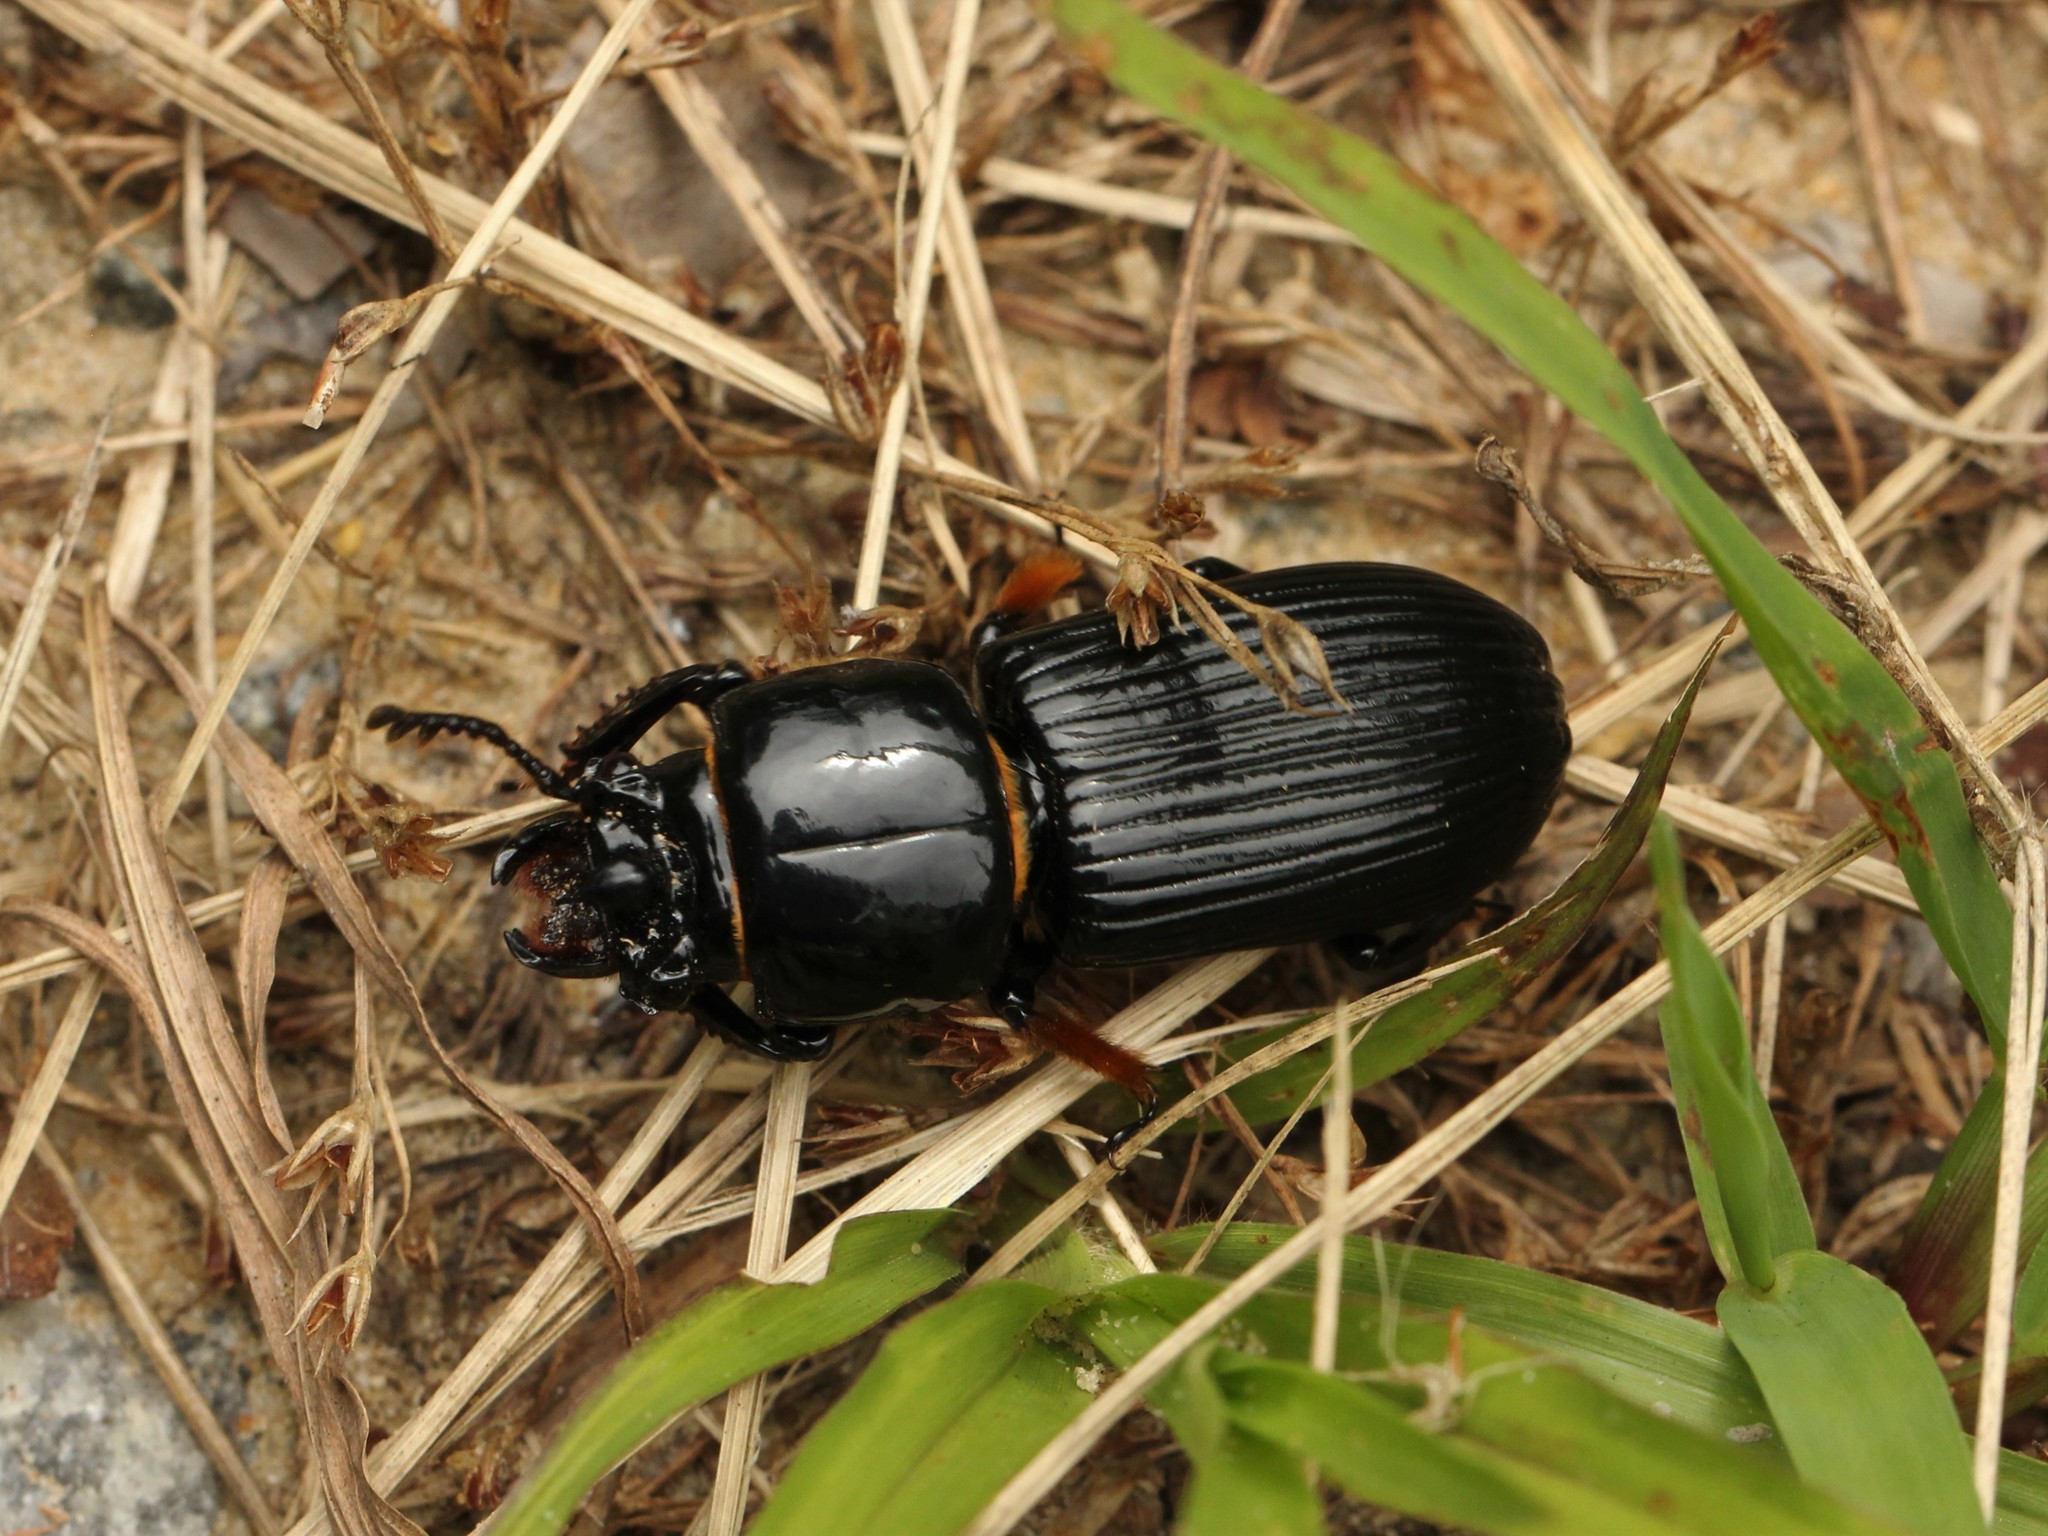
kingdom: Animalia
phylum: Arthropoda
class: Insecta
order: Coleoptera
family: Passalidae
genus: Odontotaenius
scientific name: Odontotaenius disjunctus
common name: Patent leather beetle
